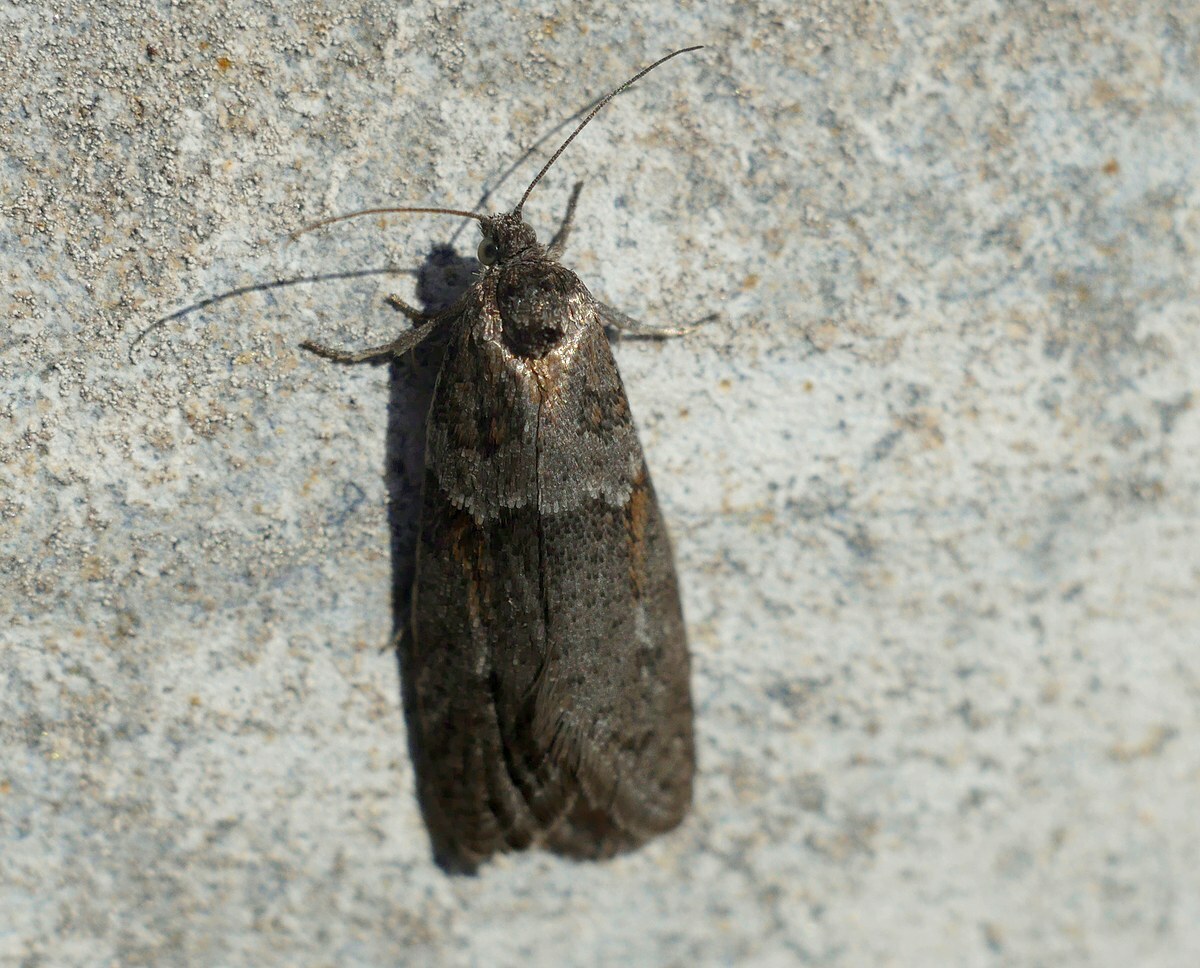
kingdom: Animalia
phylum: Arthropoda
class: Insecta
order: Lepidoptera
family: Tortricidae
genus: Tortricodes
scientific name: Tortricodes alternella
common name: Winter shade
